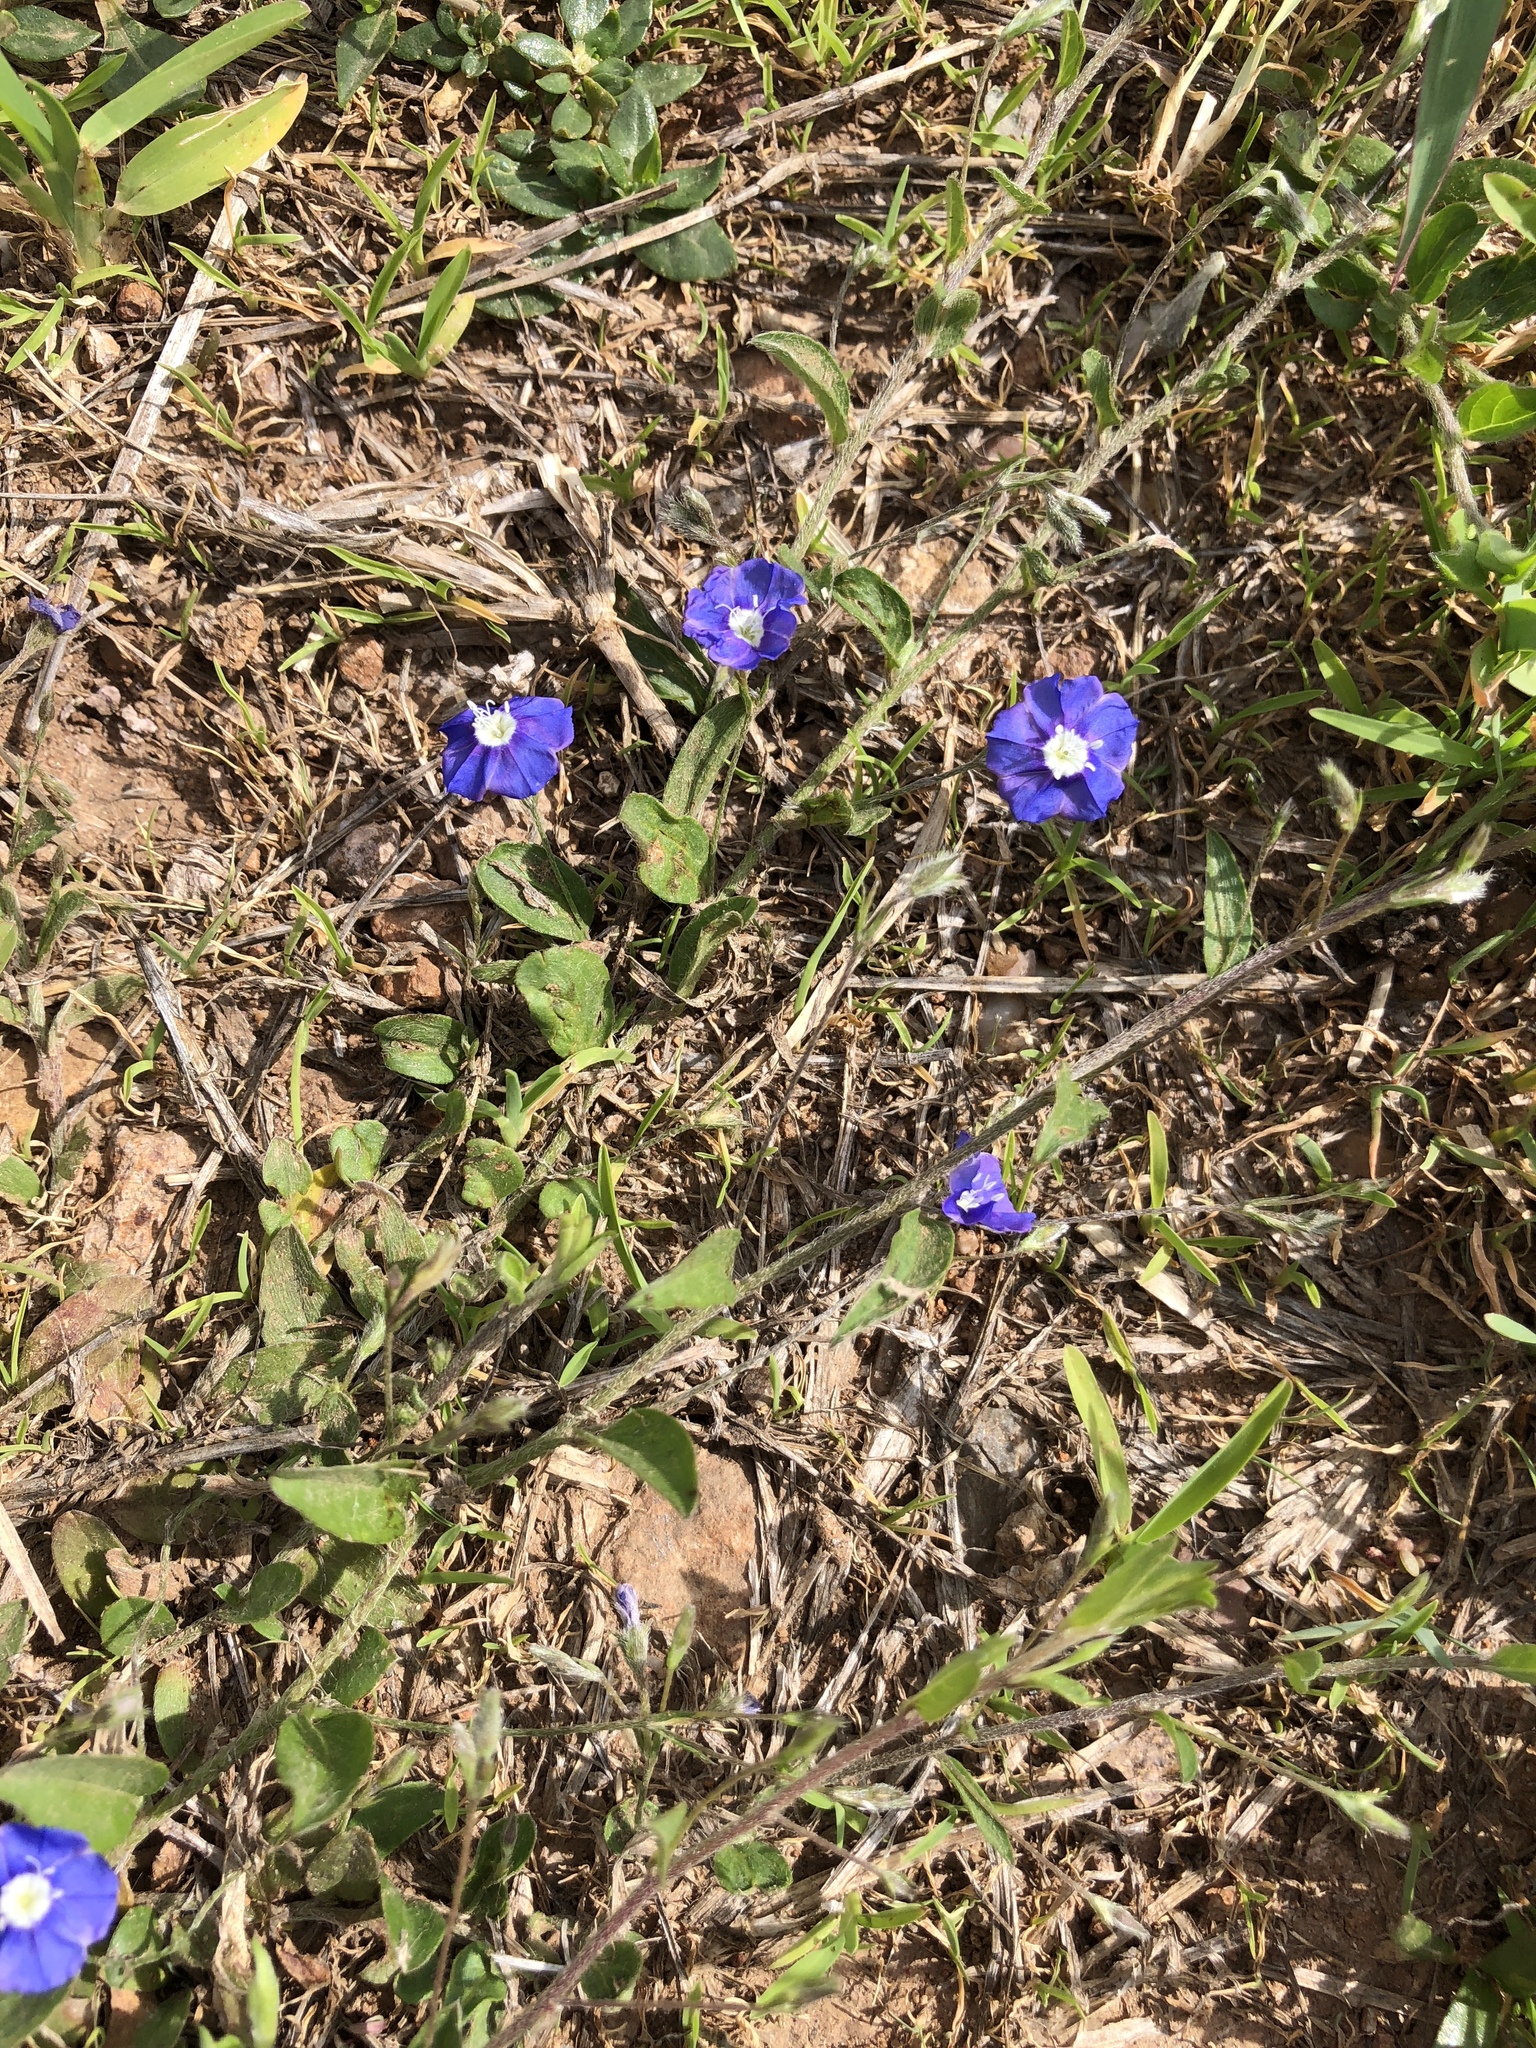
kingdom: Plantae
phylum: Tracheophyta
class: Magnoliopsida
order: Solanales
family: Convolvulaceae
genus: Evolvulus
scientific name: Evolvulus alsinoides
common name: Slender dwarf morning-glory
